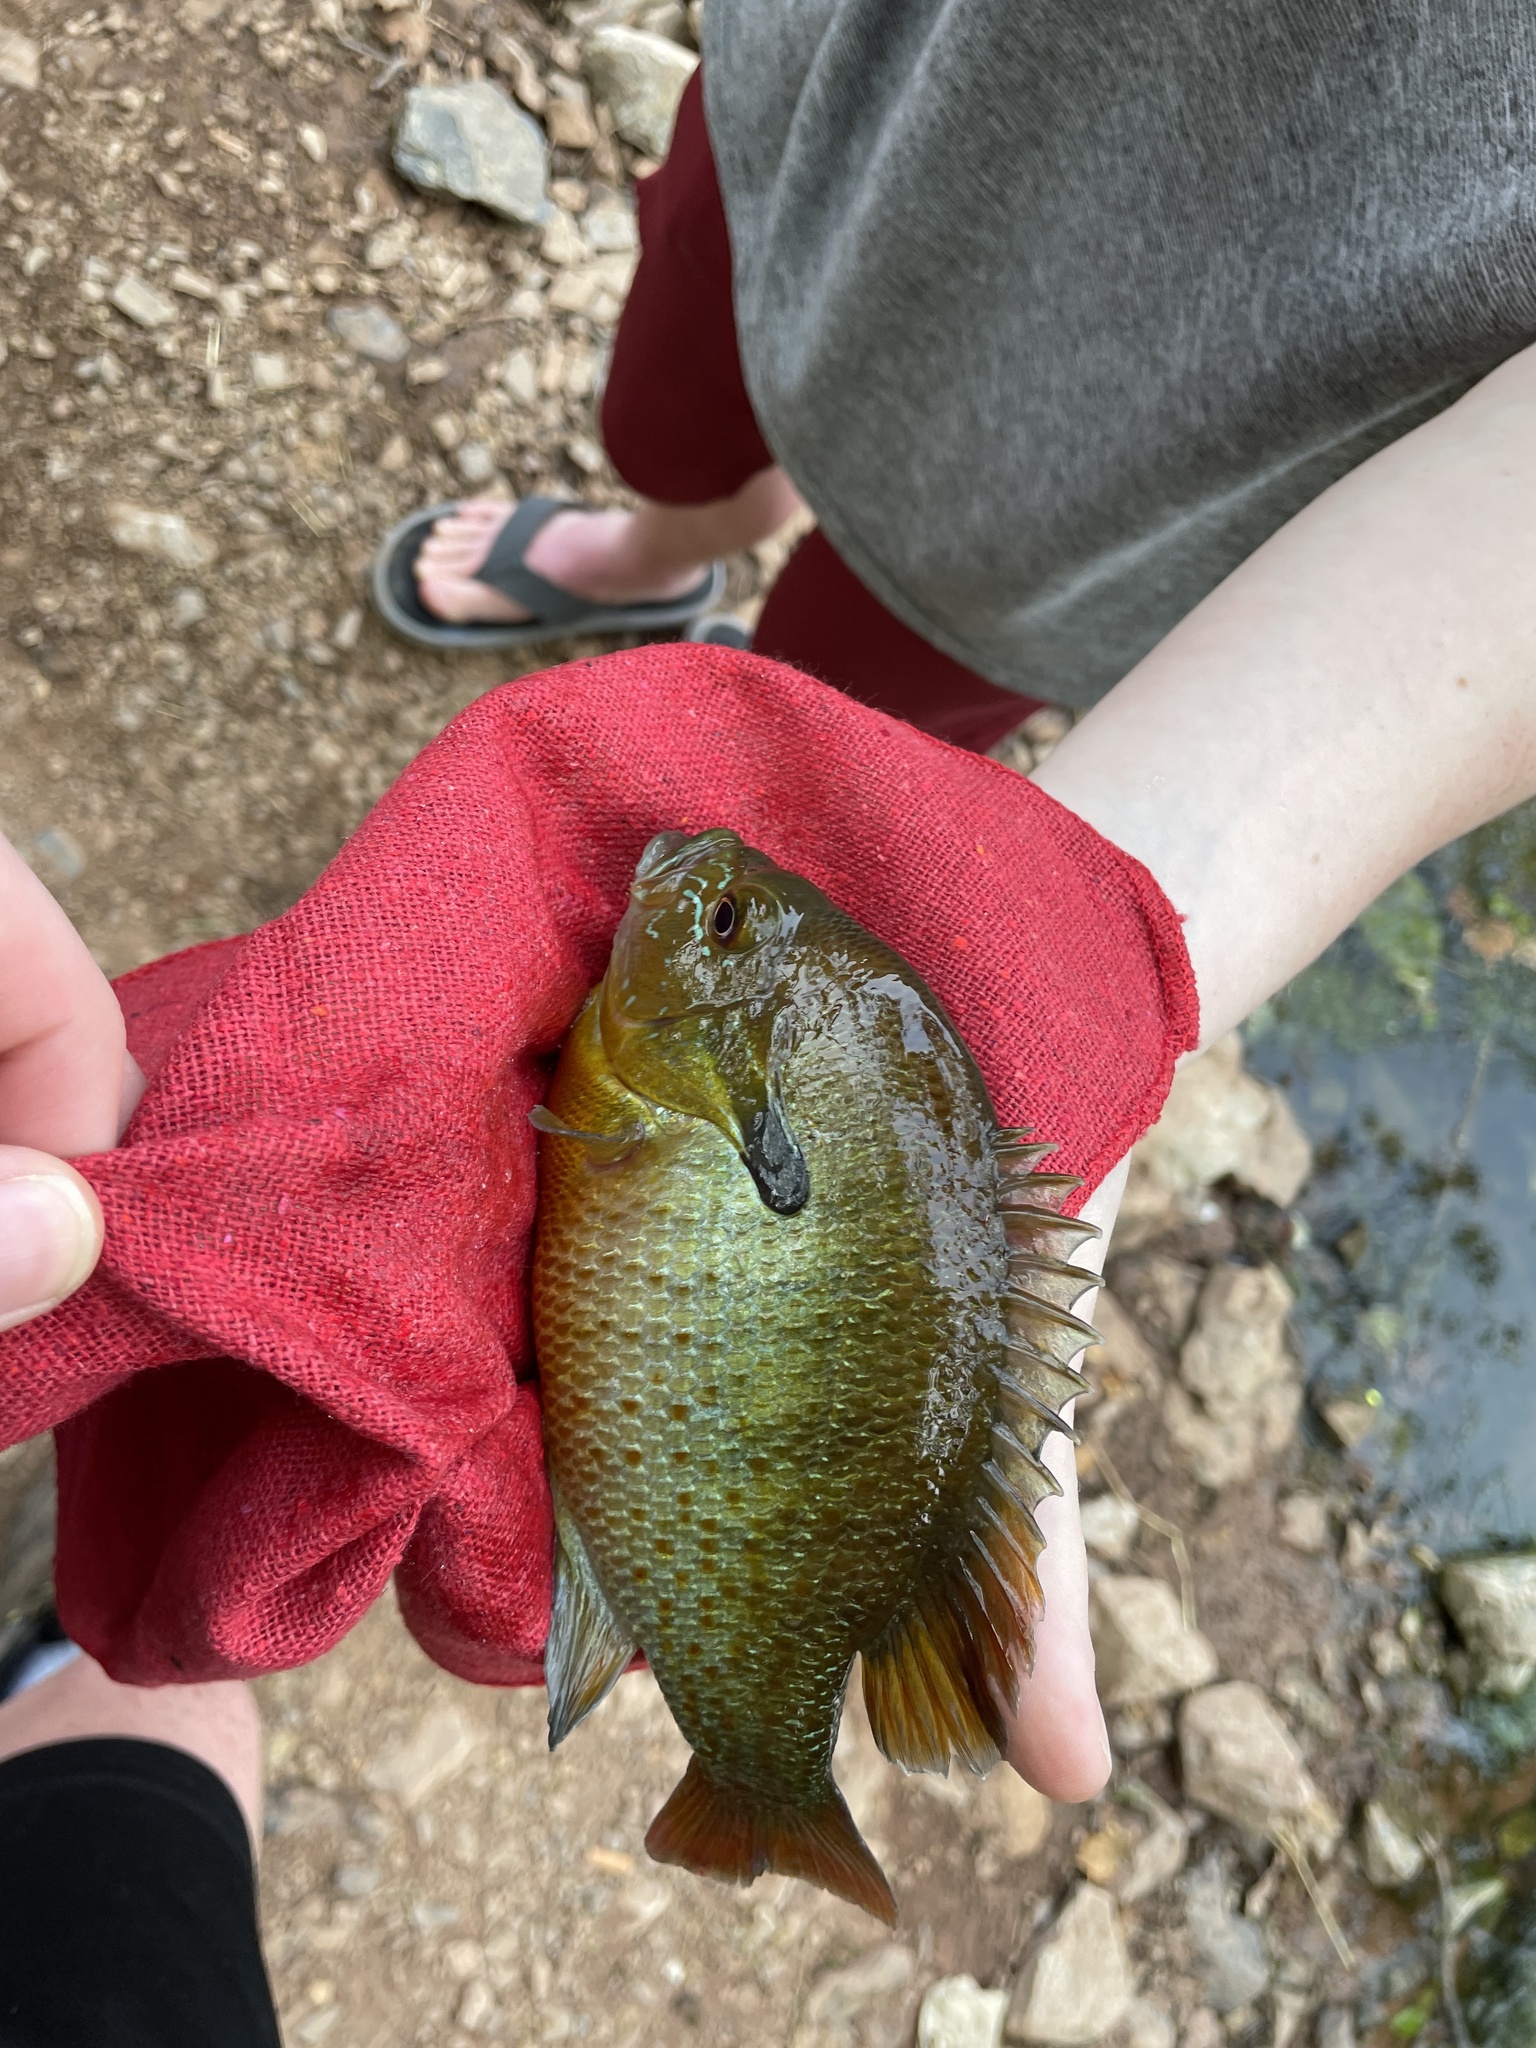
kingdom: Animalia
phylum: Chordata
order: Perciformes
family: Centrarchidae
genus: Lepomis
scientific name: Lepomis auritus
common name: Redbreast sunfish
